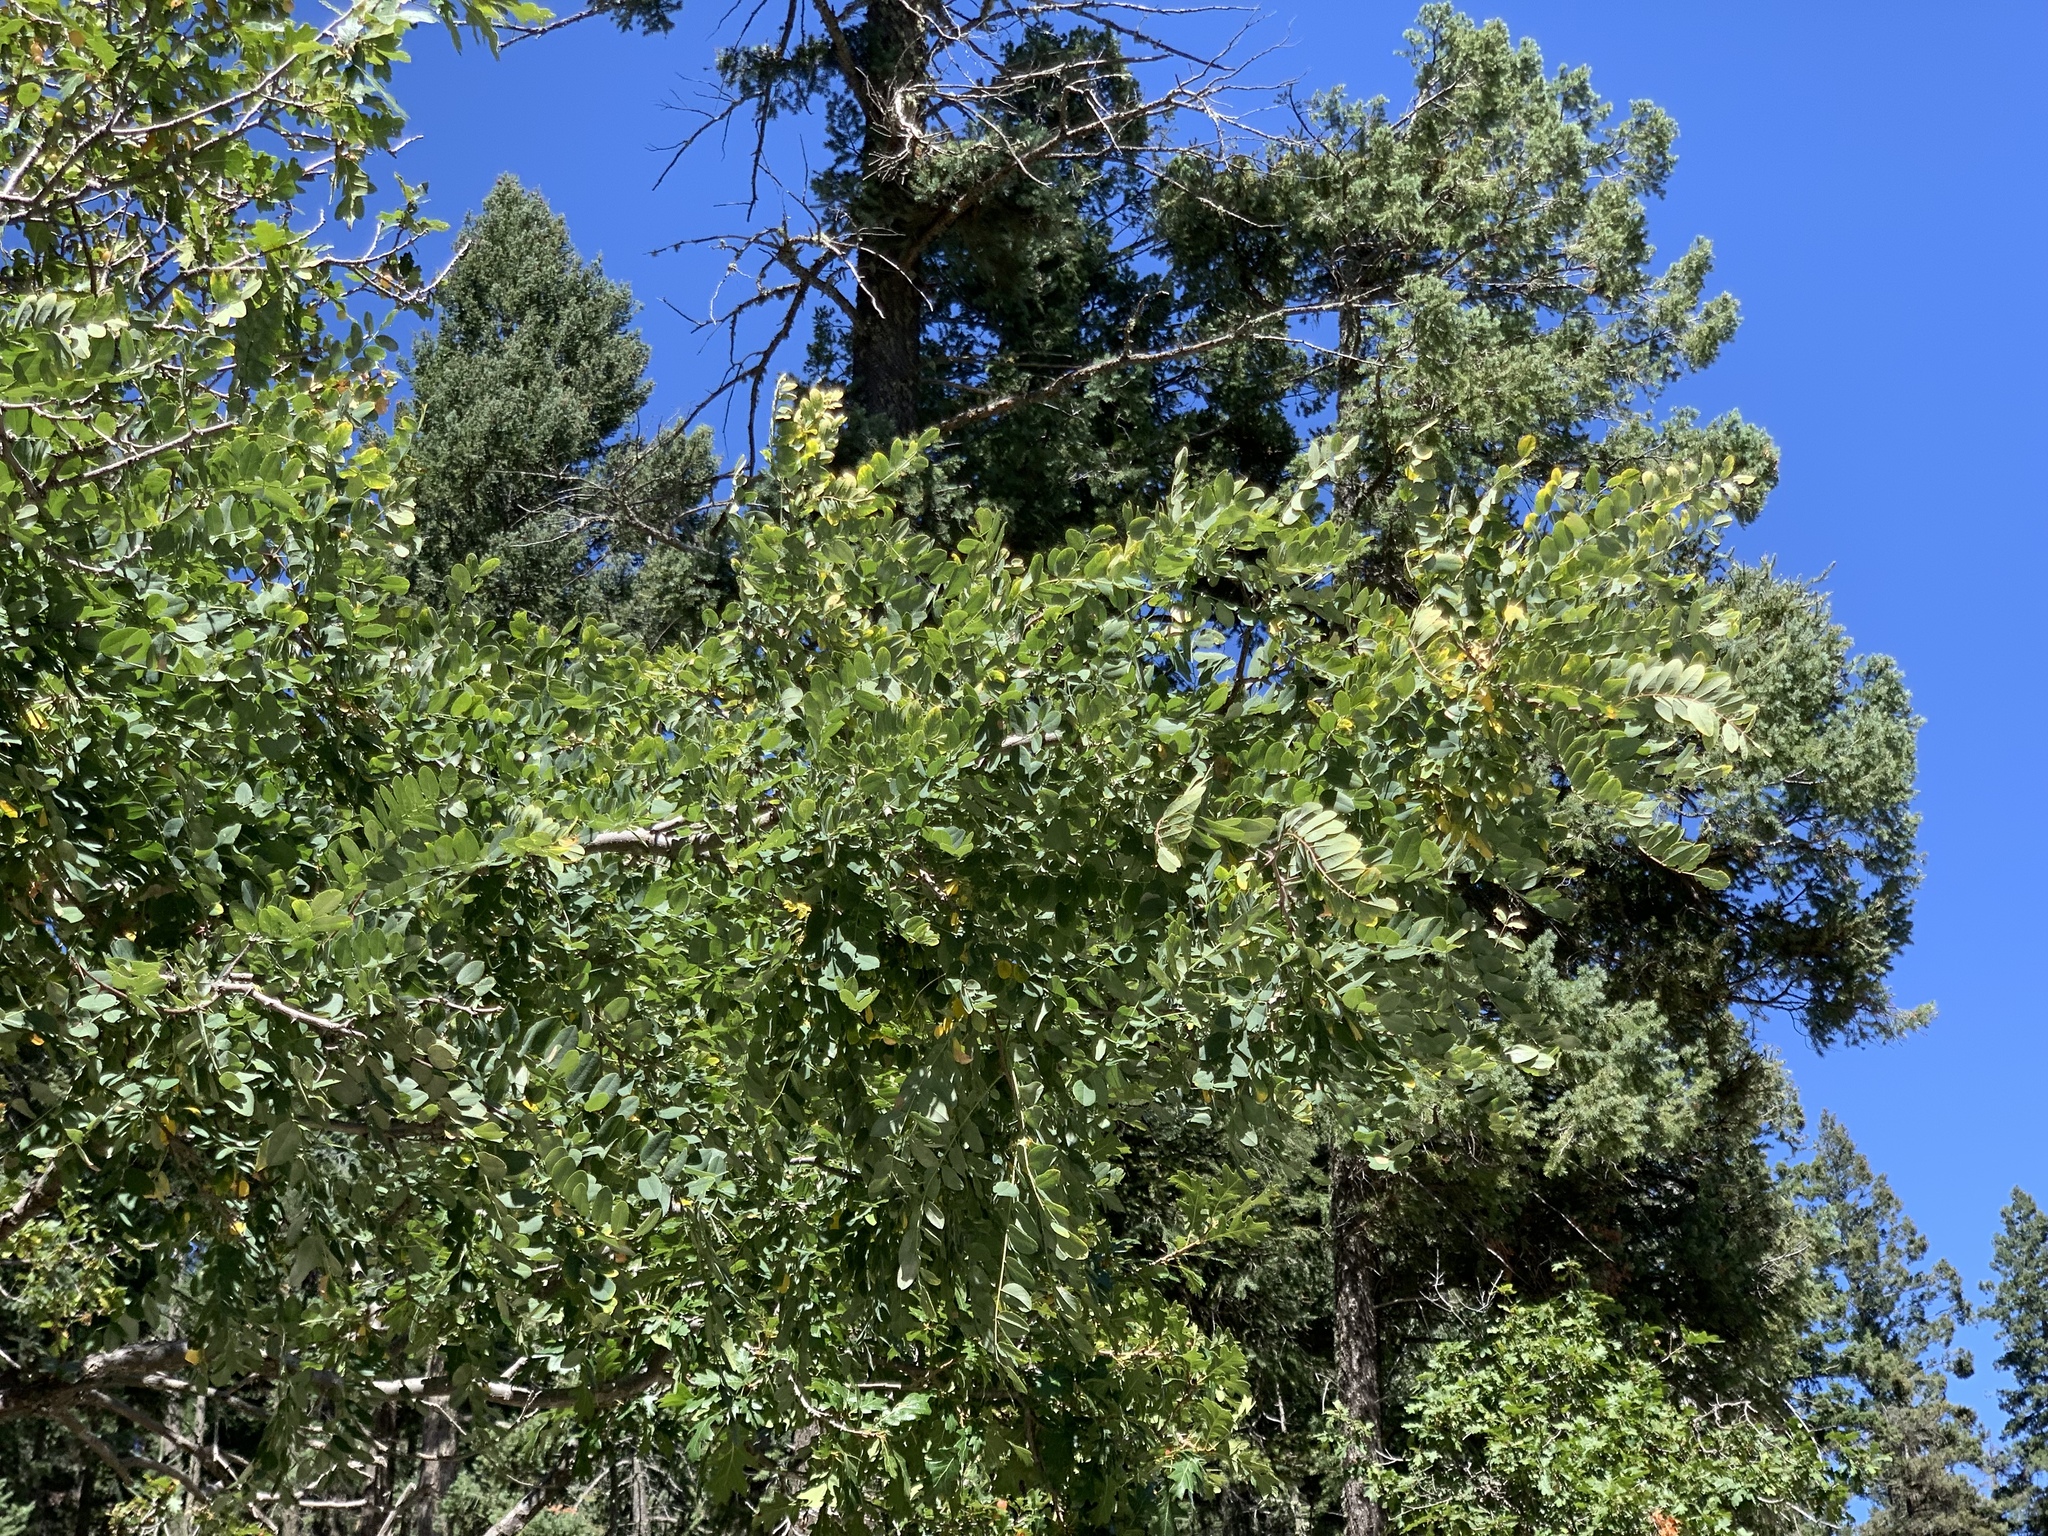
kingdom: Plantae
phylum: Tracheophyta
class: Magnoliopsida
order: Fabales
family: Fabaceae
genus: Robinia
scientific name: Robinia neomexicana
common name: New mexico locust
